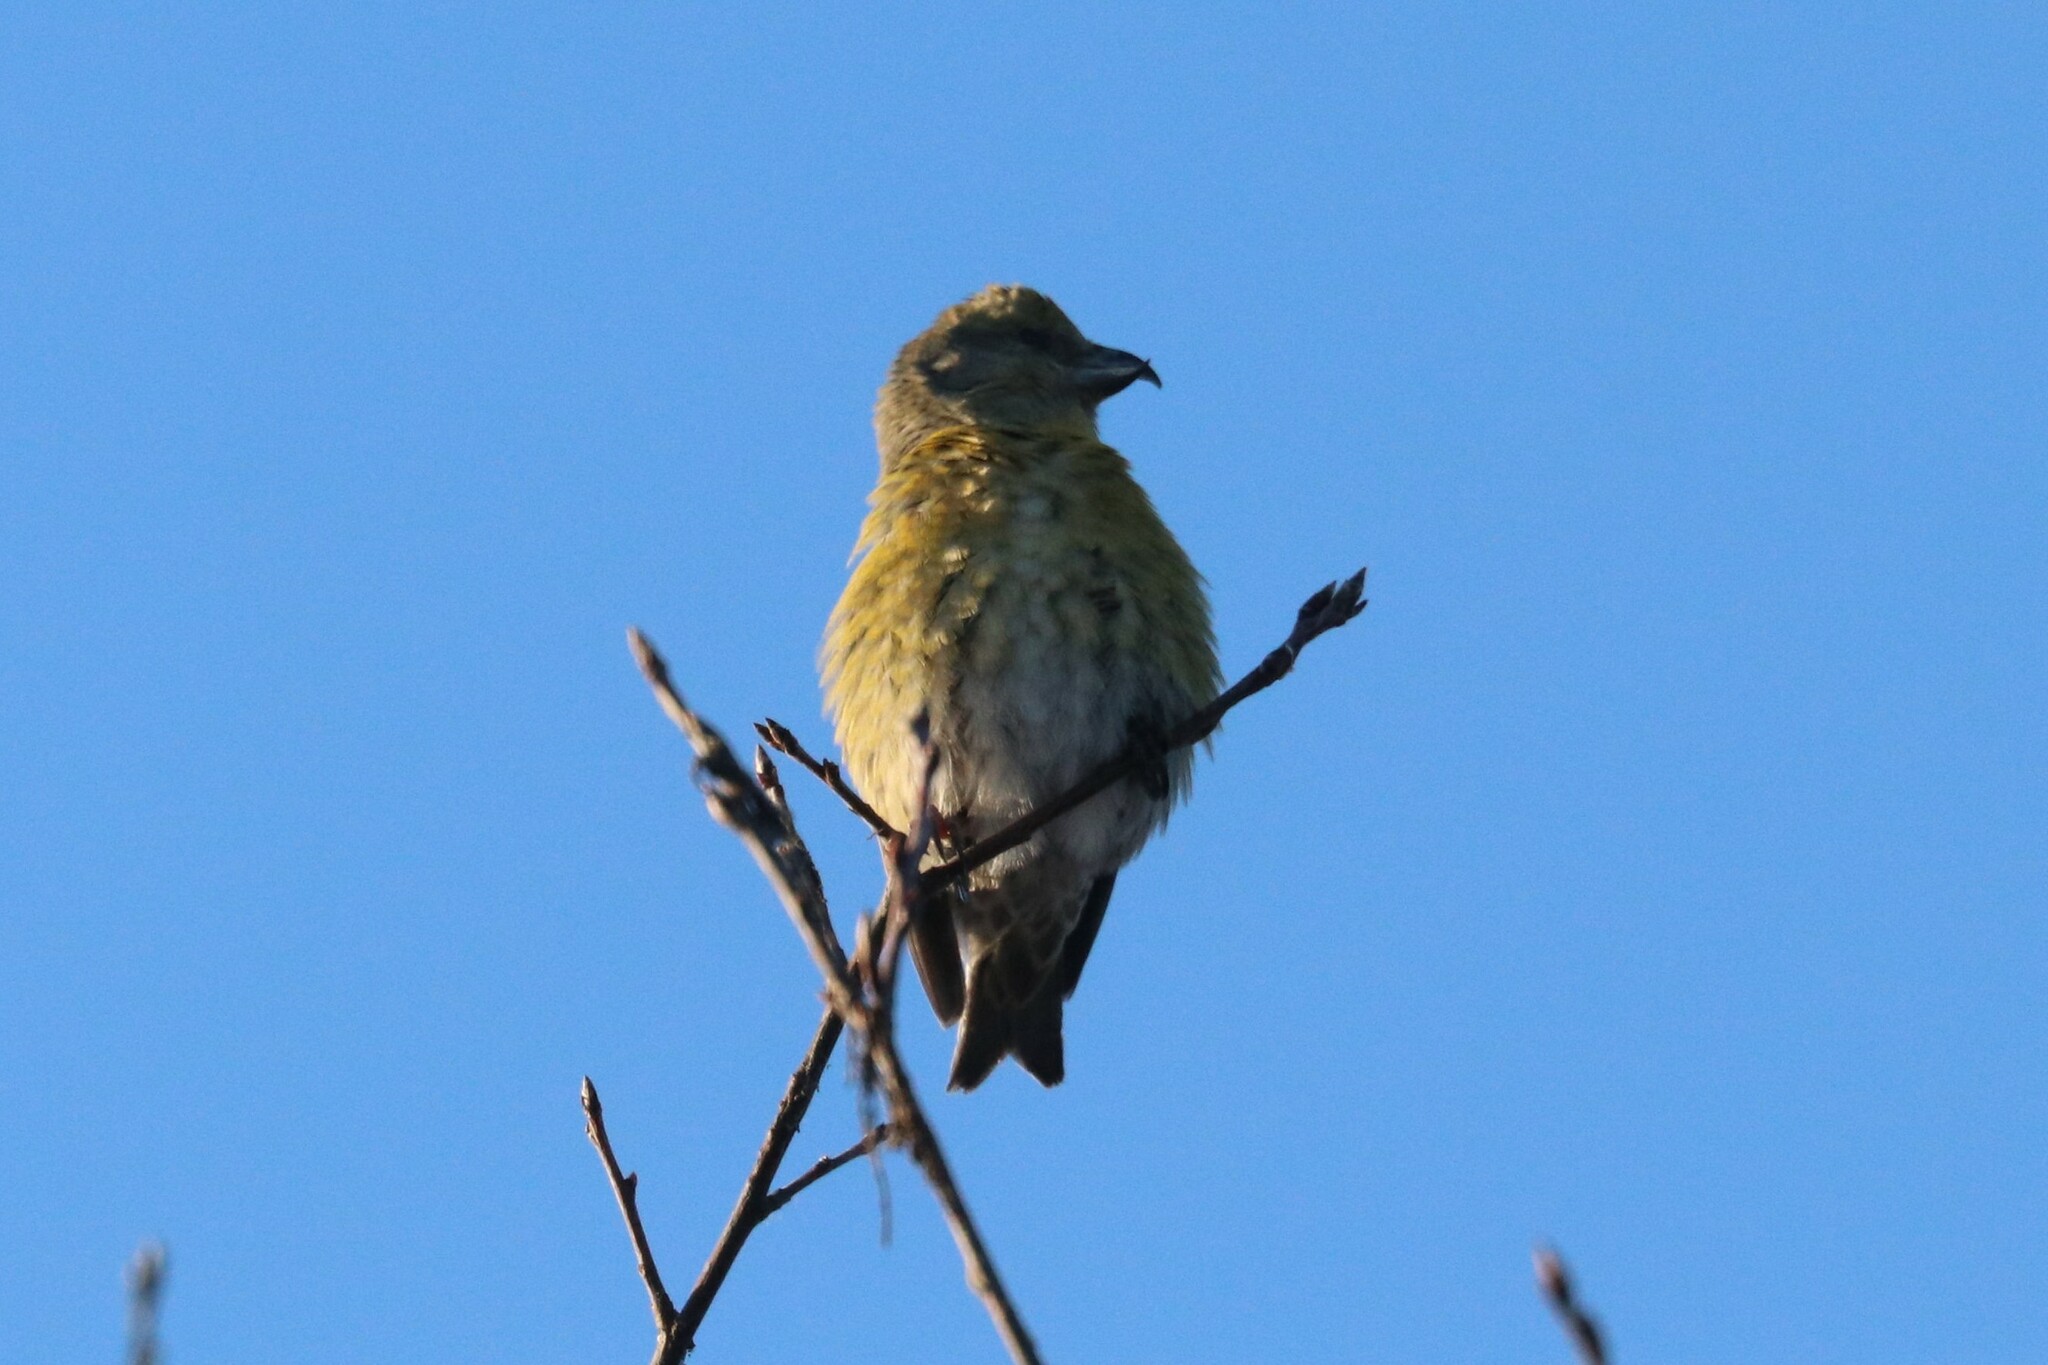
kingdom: Animalia
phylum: Chordata
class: Aves
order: Passeriformes
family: Fringillidae
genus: Loxia
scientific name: Loxia curvirostra
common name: Red crossbill
